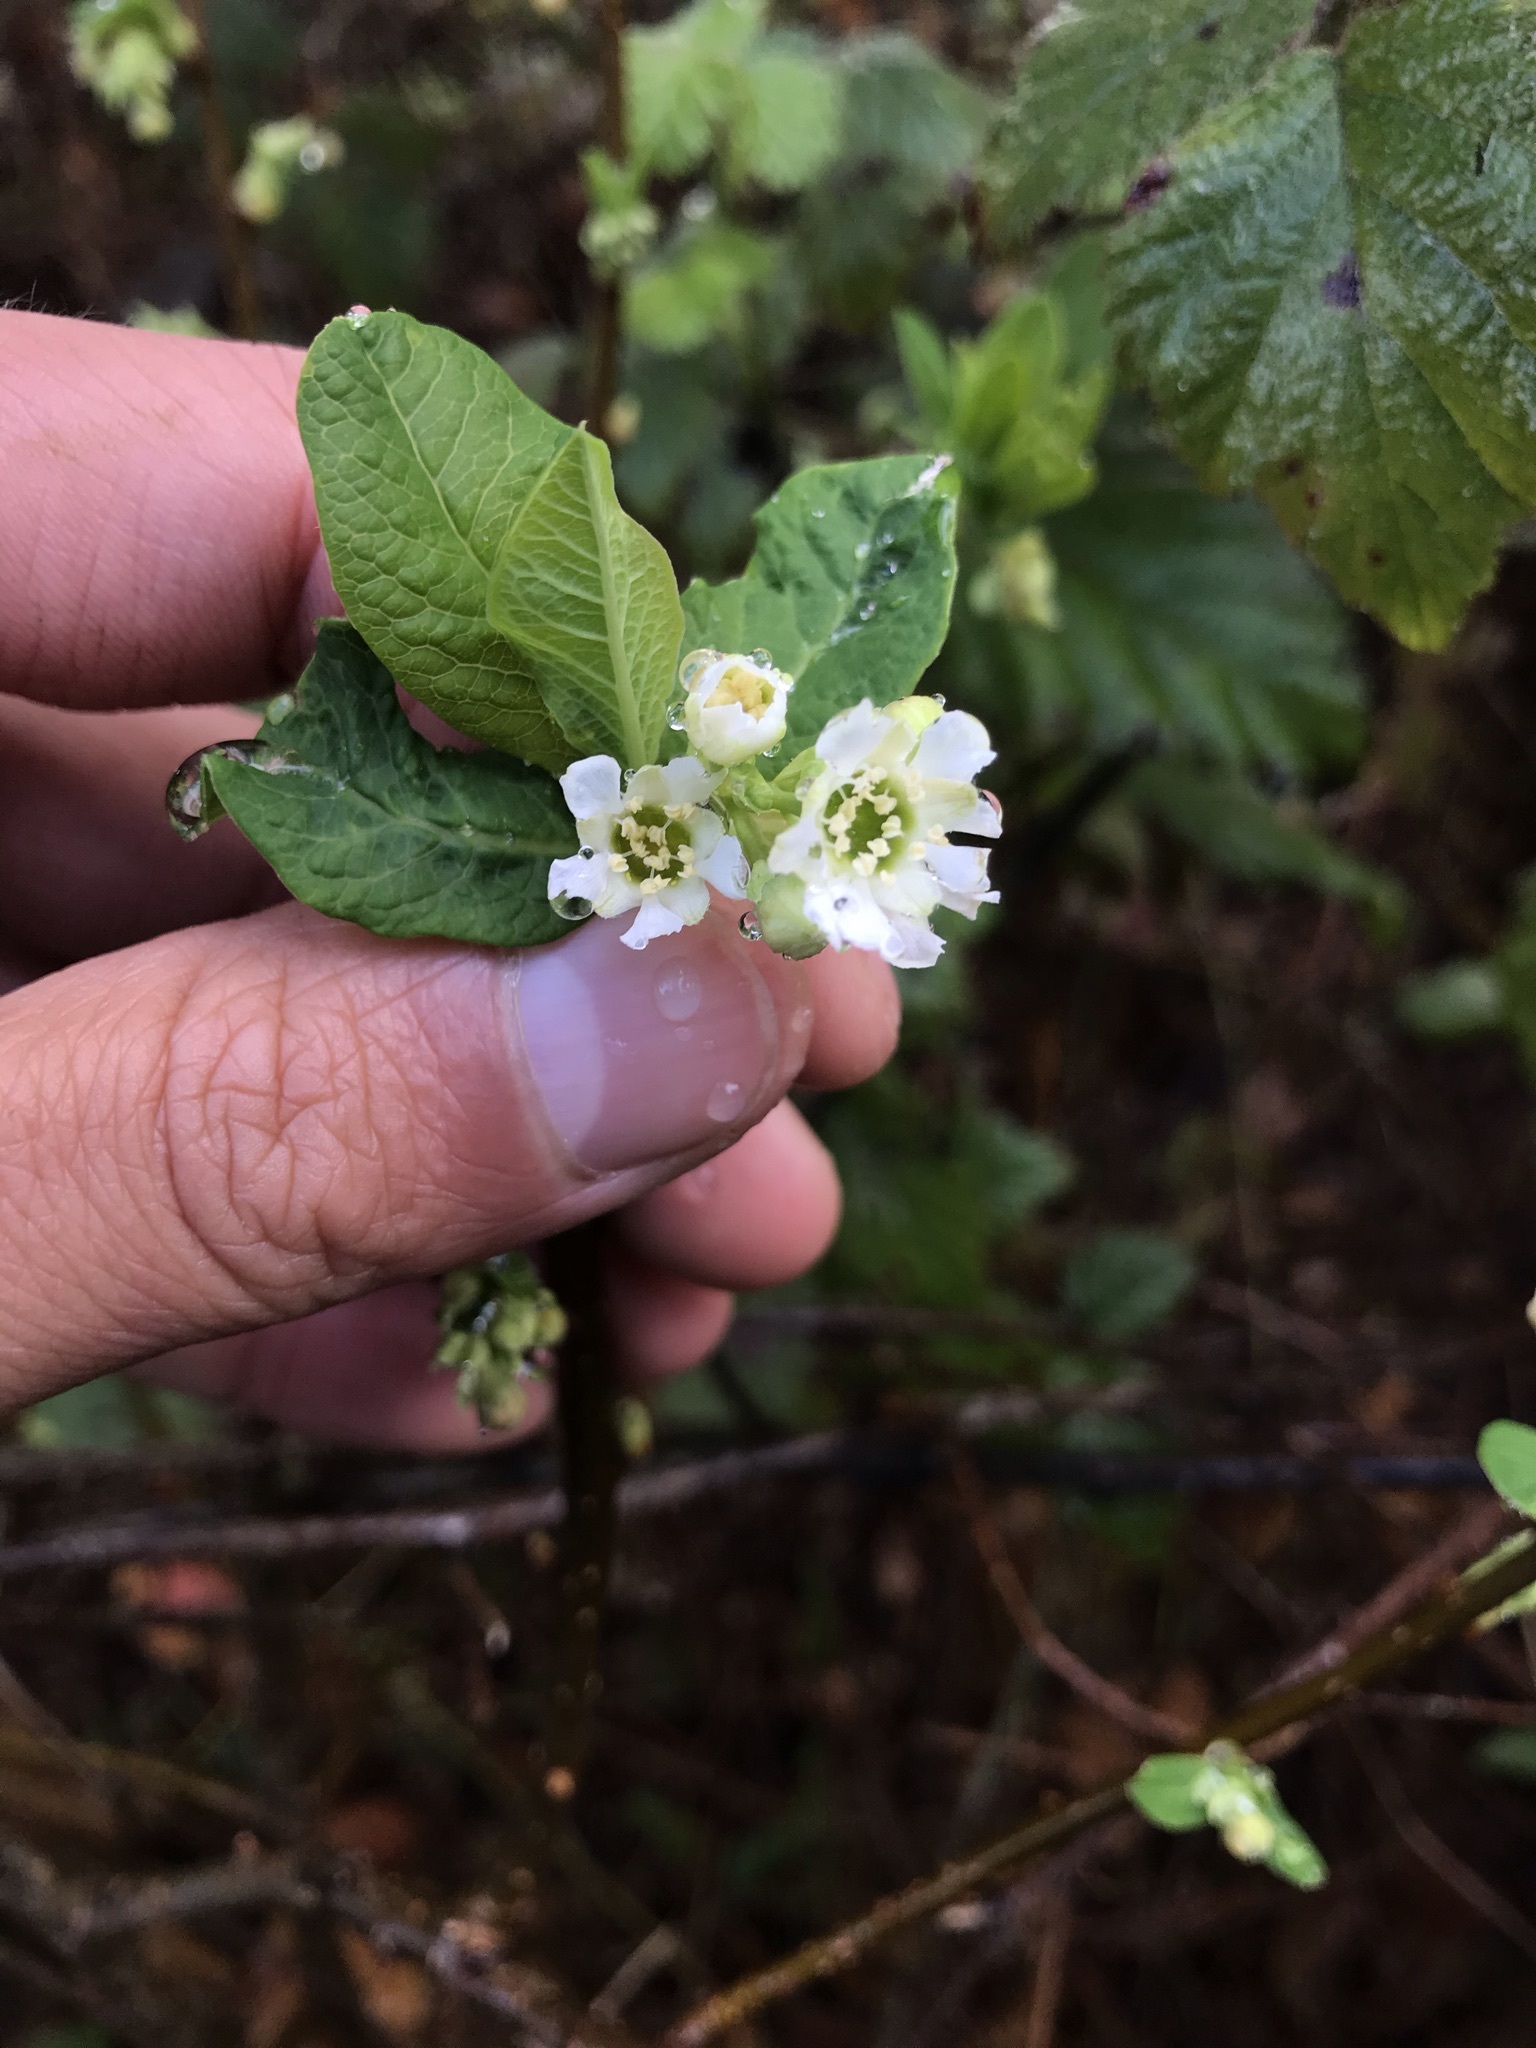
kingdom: Plantae
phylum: Tracheophyta
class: Magnoliopsida
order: Rosales
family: Rosaceae
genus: Oemleria
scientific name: Oemleria cerasiformis
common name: Osoberry
